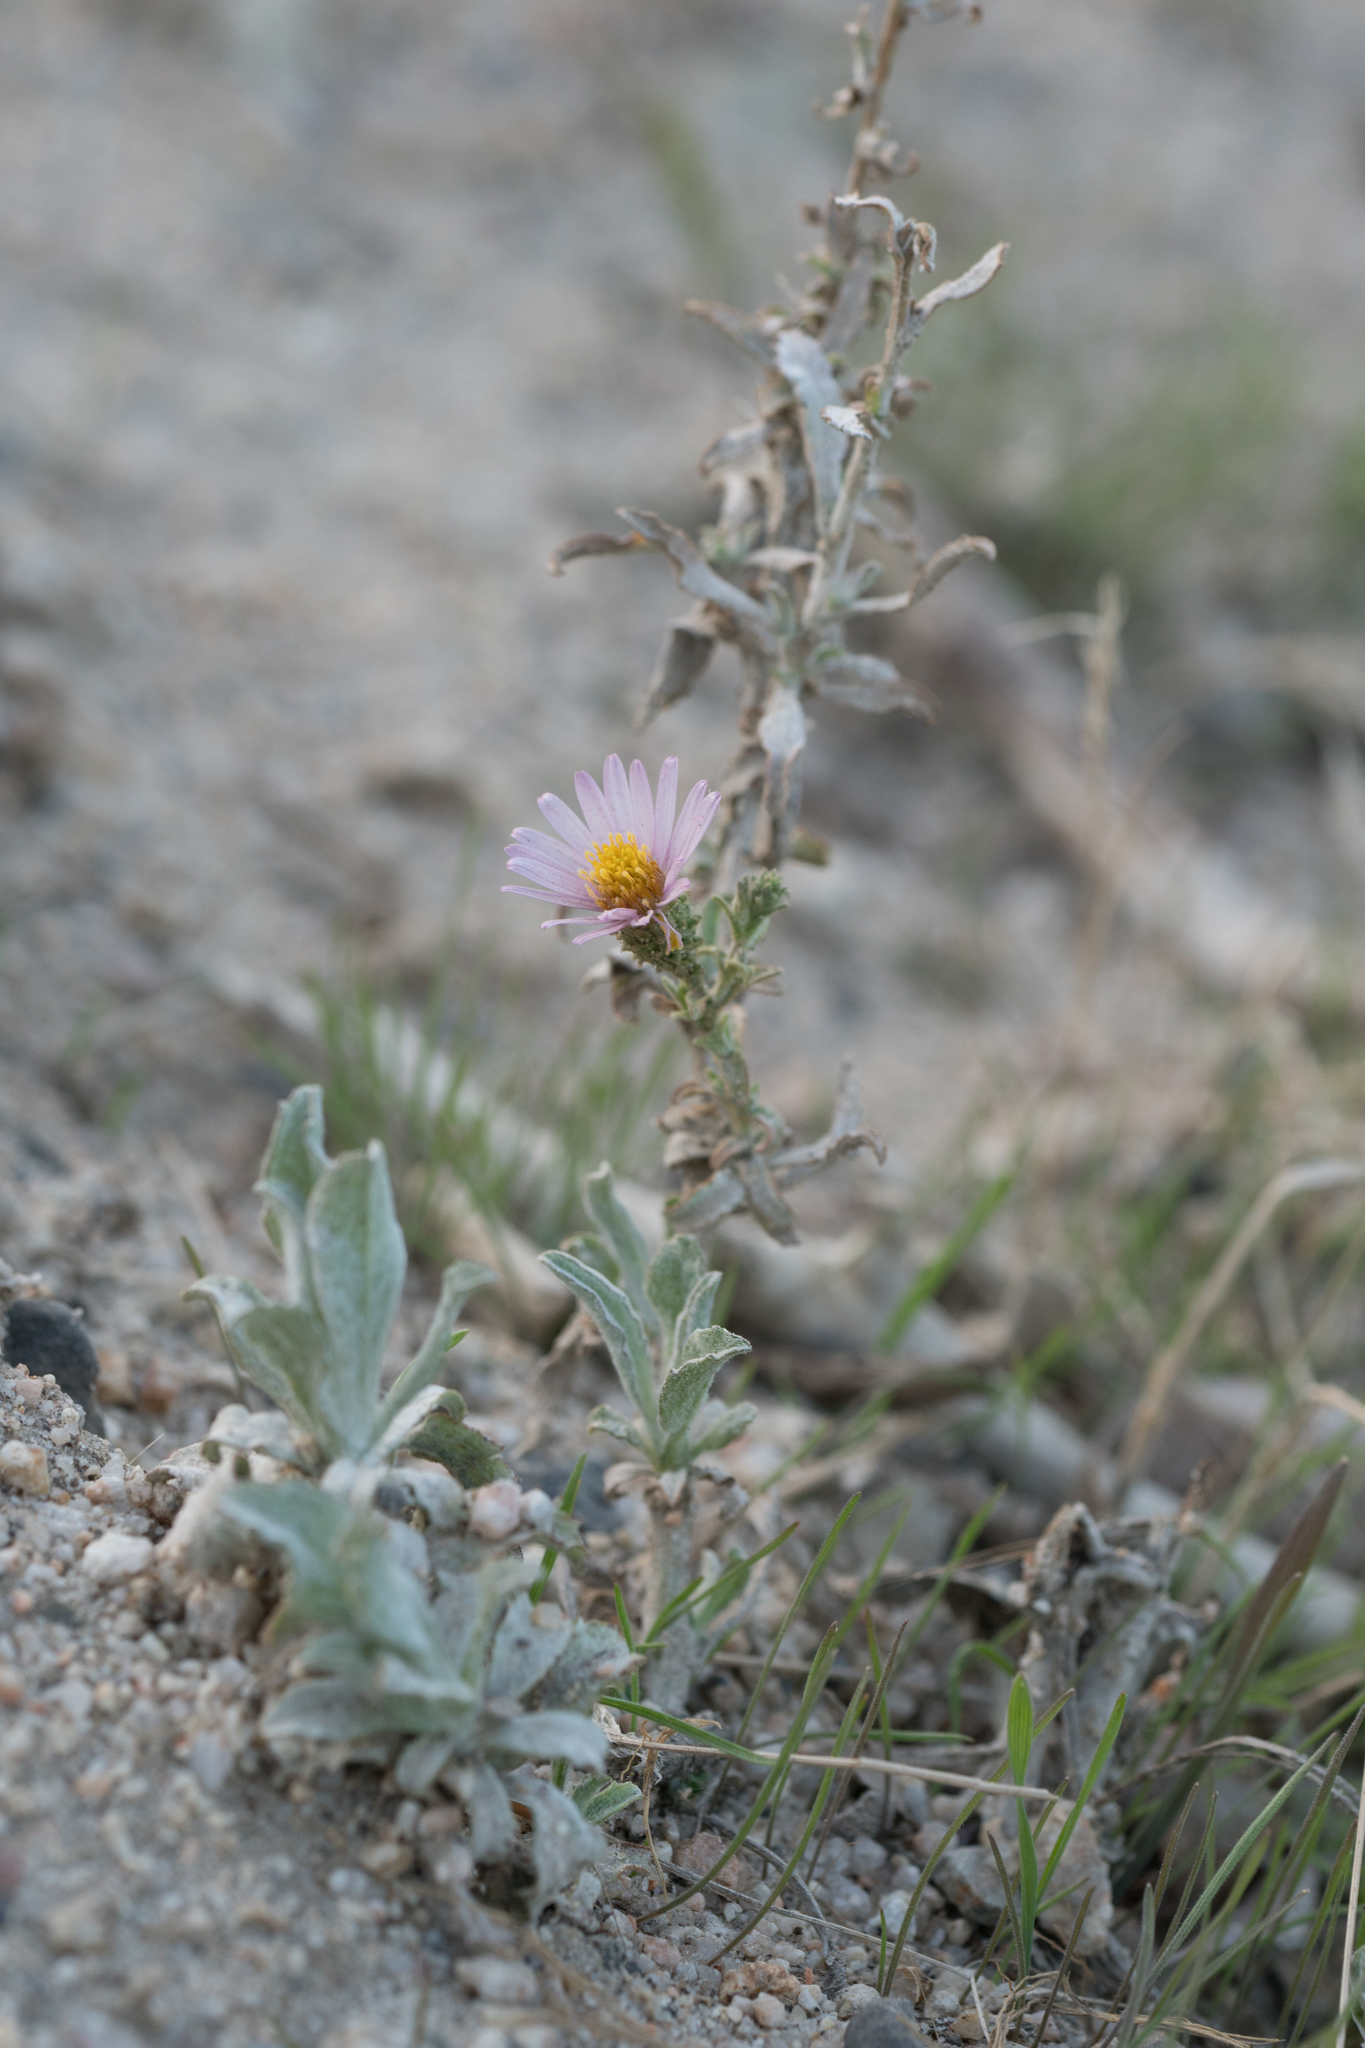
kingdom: Plantae
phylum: Tracheophyta
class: Magnoliopsida
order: Asterales
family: Asteraceae
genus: Corethrogyne
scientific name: Corethrogyne filaginifolia
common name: Sand-aster
